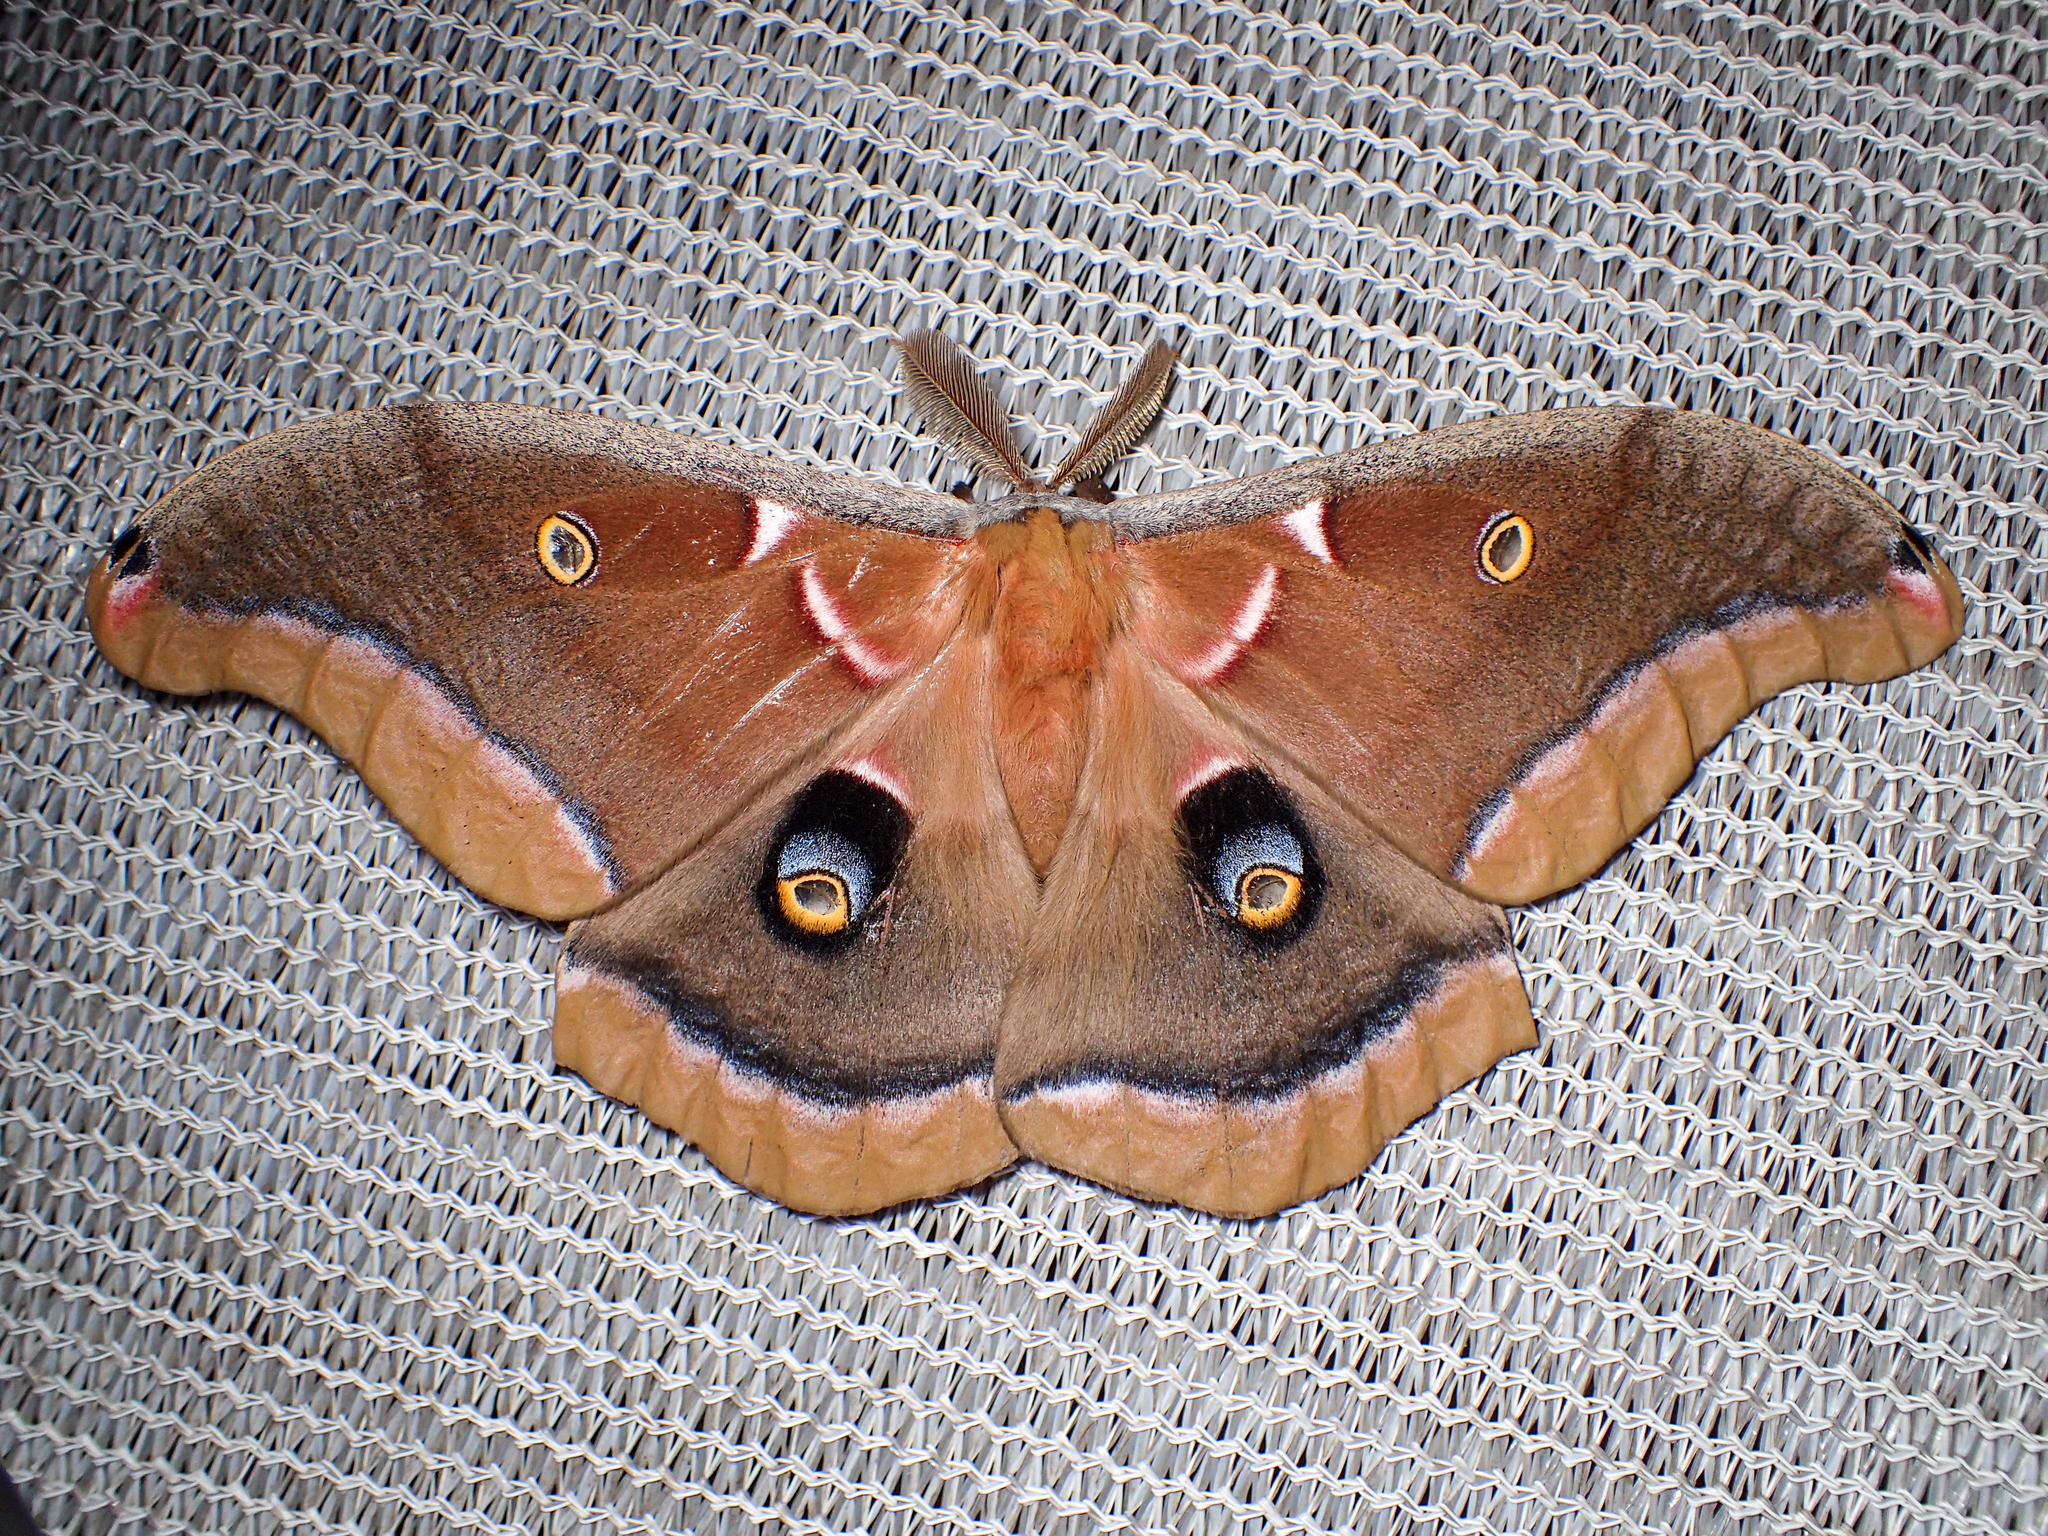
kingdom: Animalia
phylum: Arthropoda
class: Insecta
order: Lepidoptera
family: Saturniidae
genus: Antheraea
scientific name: Antheraea polyphemus
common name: Polyphemus moth
